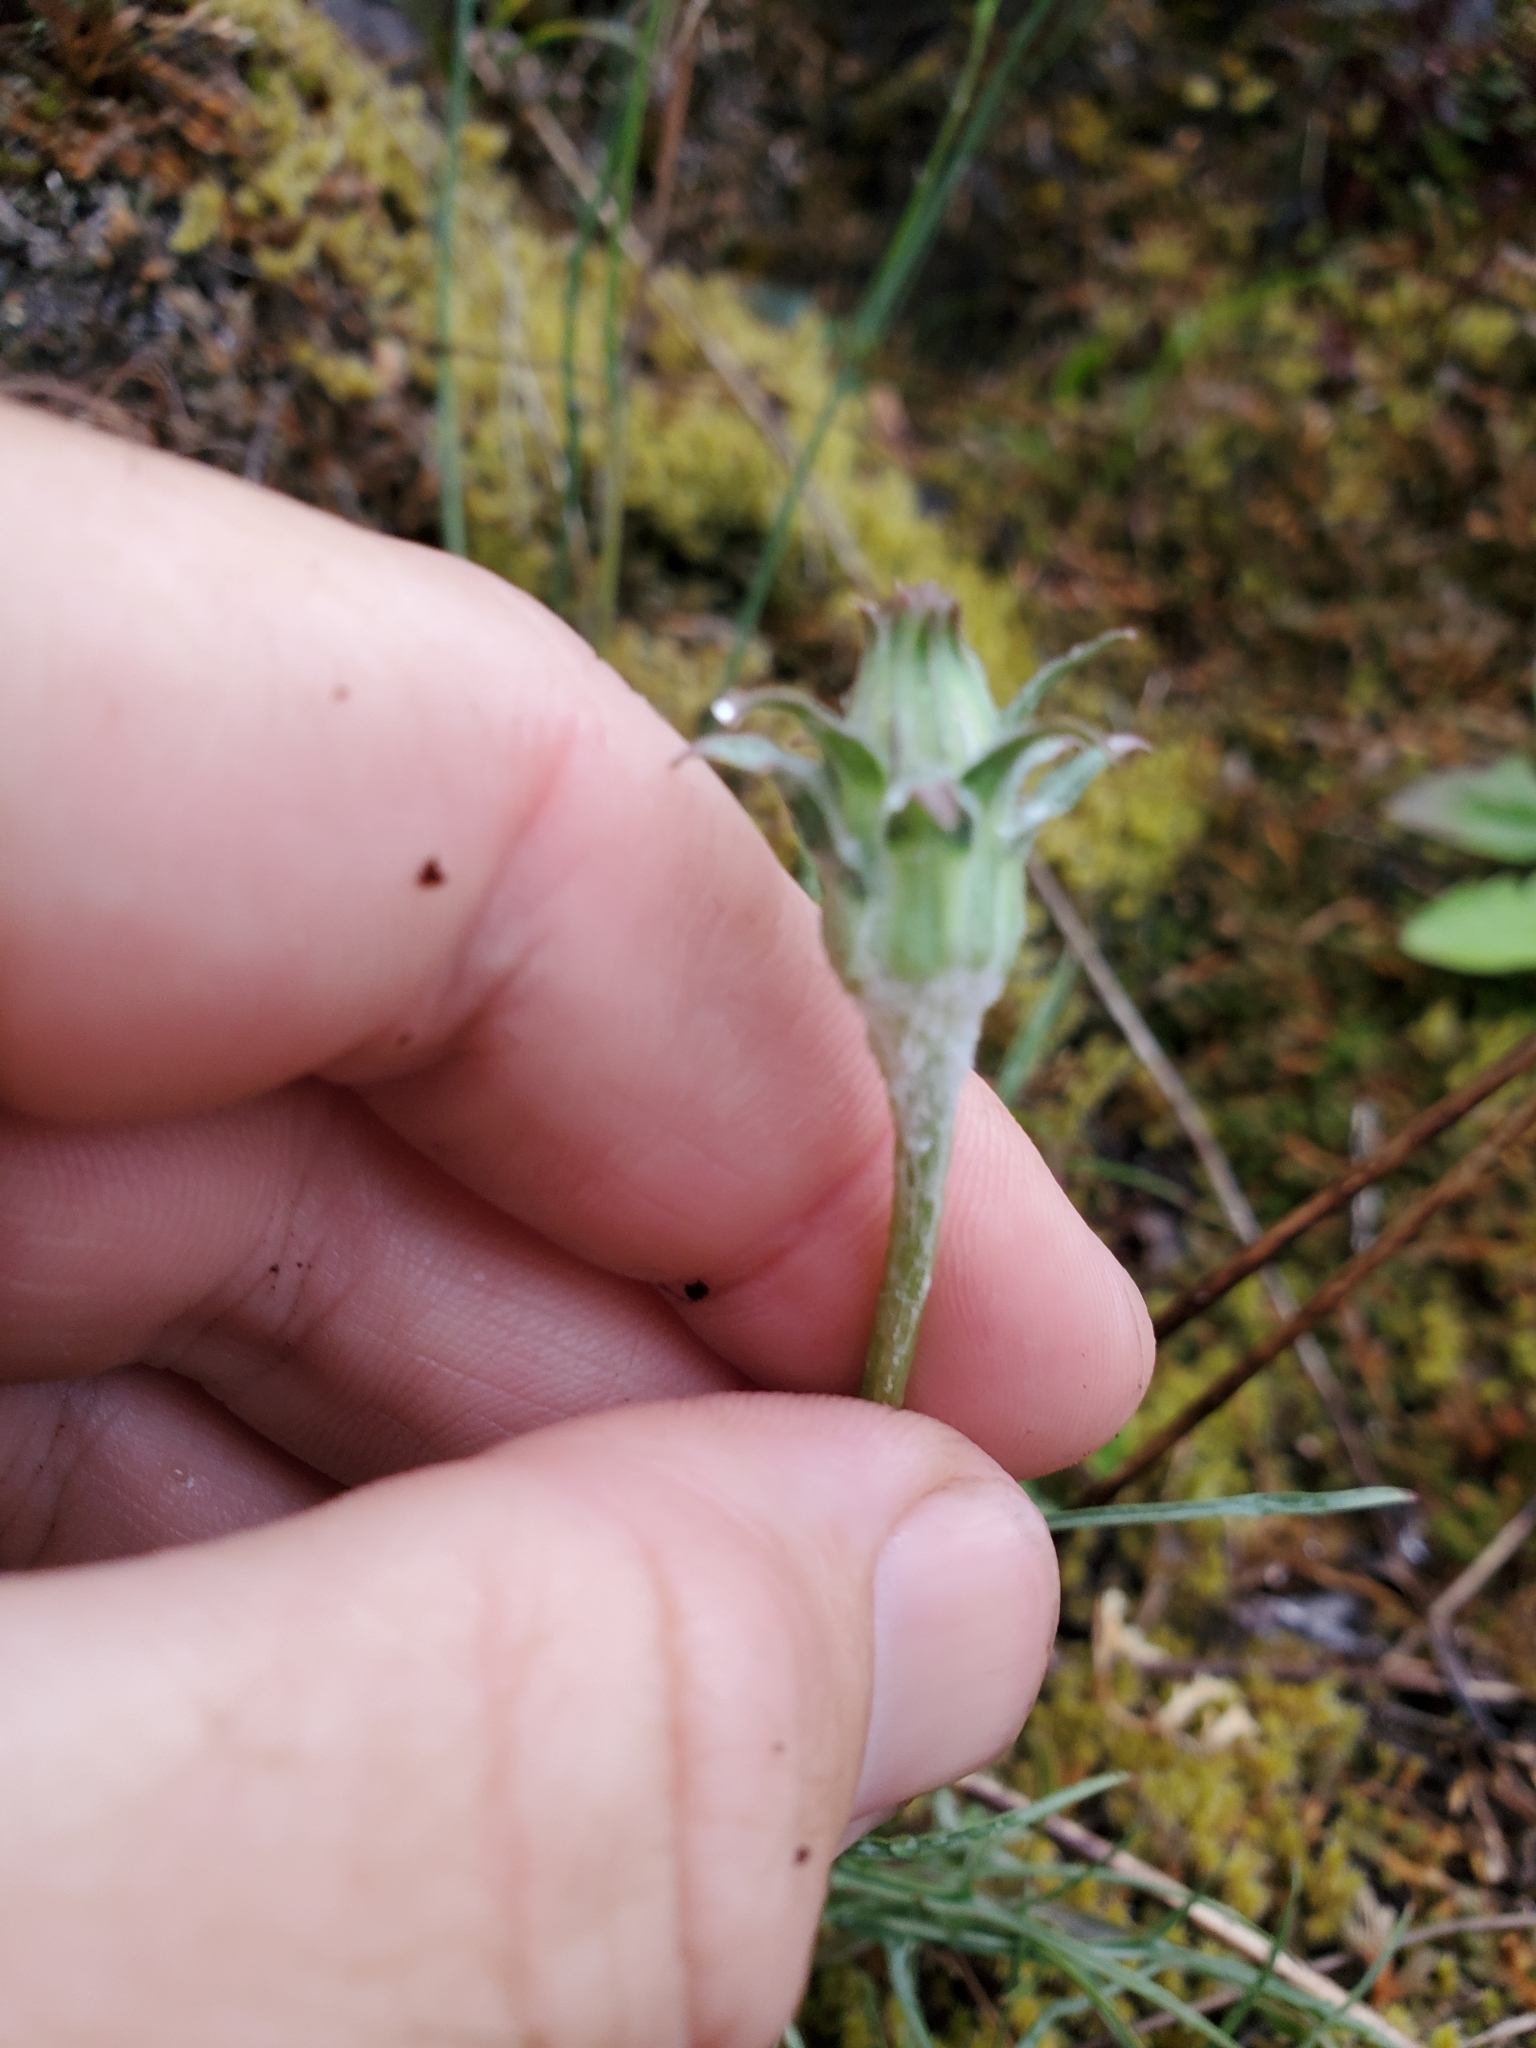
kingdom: Plantae
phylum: Tracheophyta
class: Magnoliopsida
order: Asterales
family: Asteraceae
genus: Agoseris
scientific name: Agoseris grandiflora
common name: Grassland agoseris
